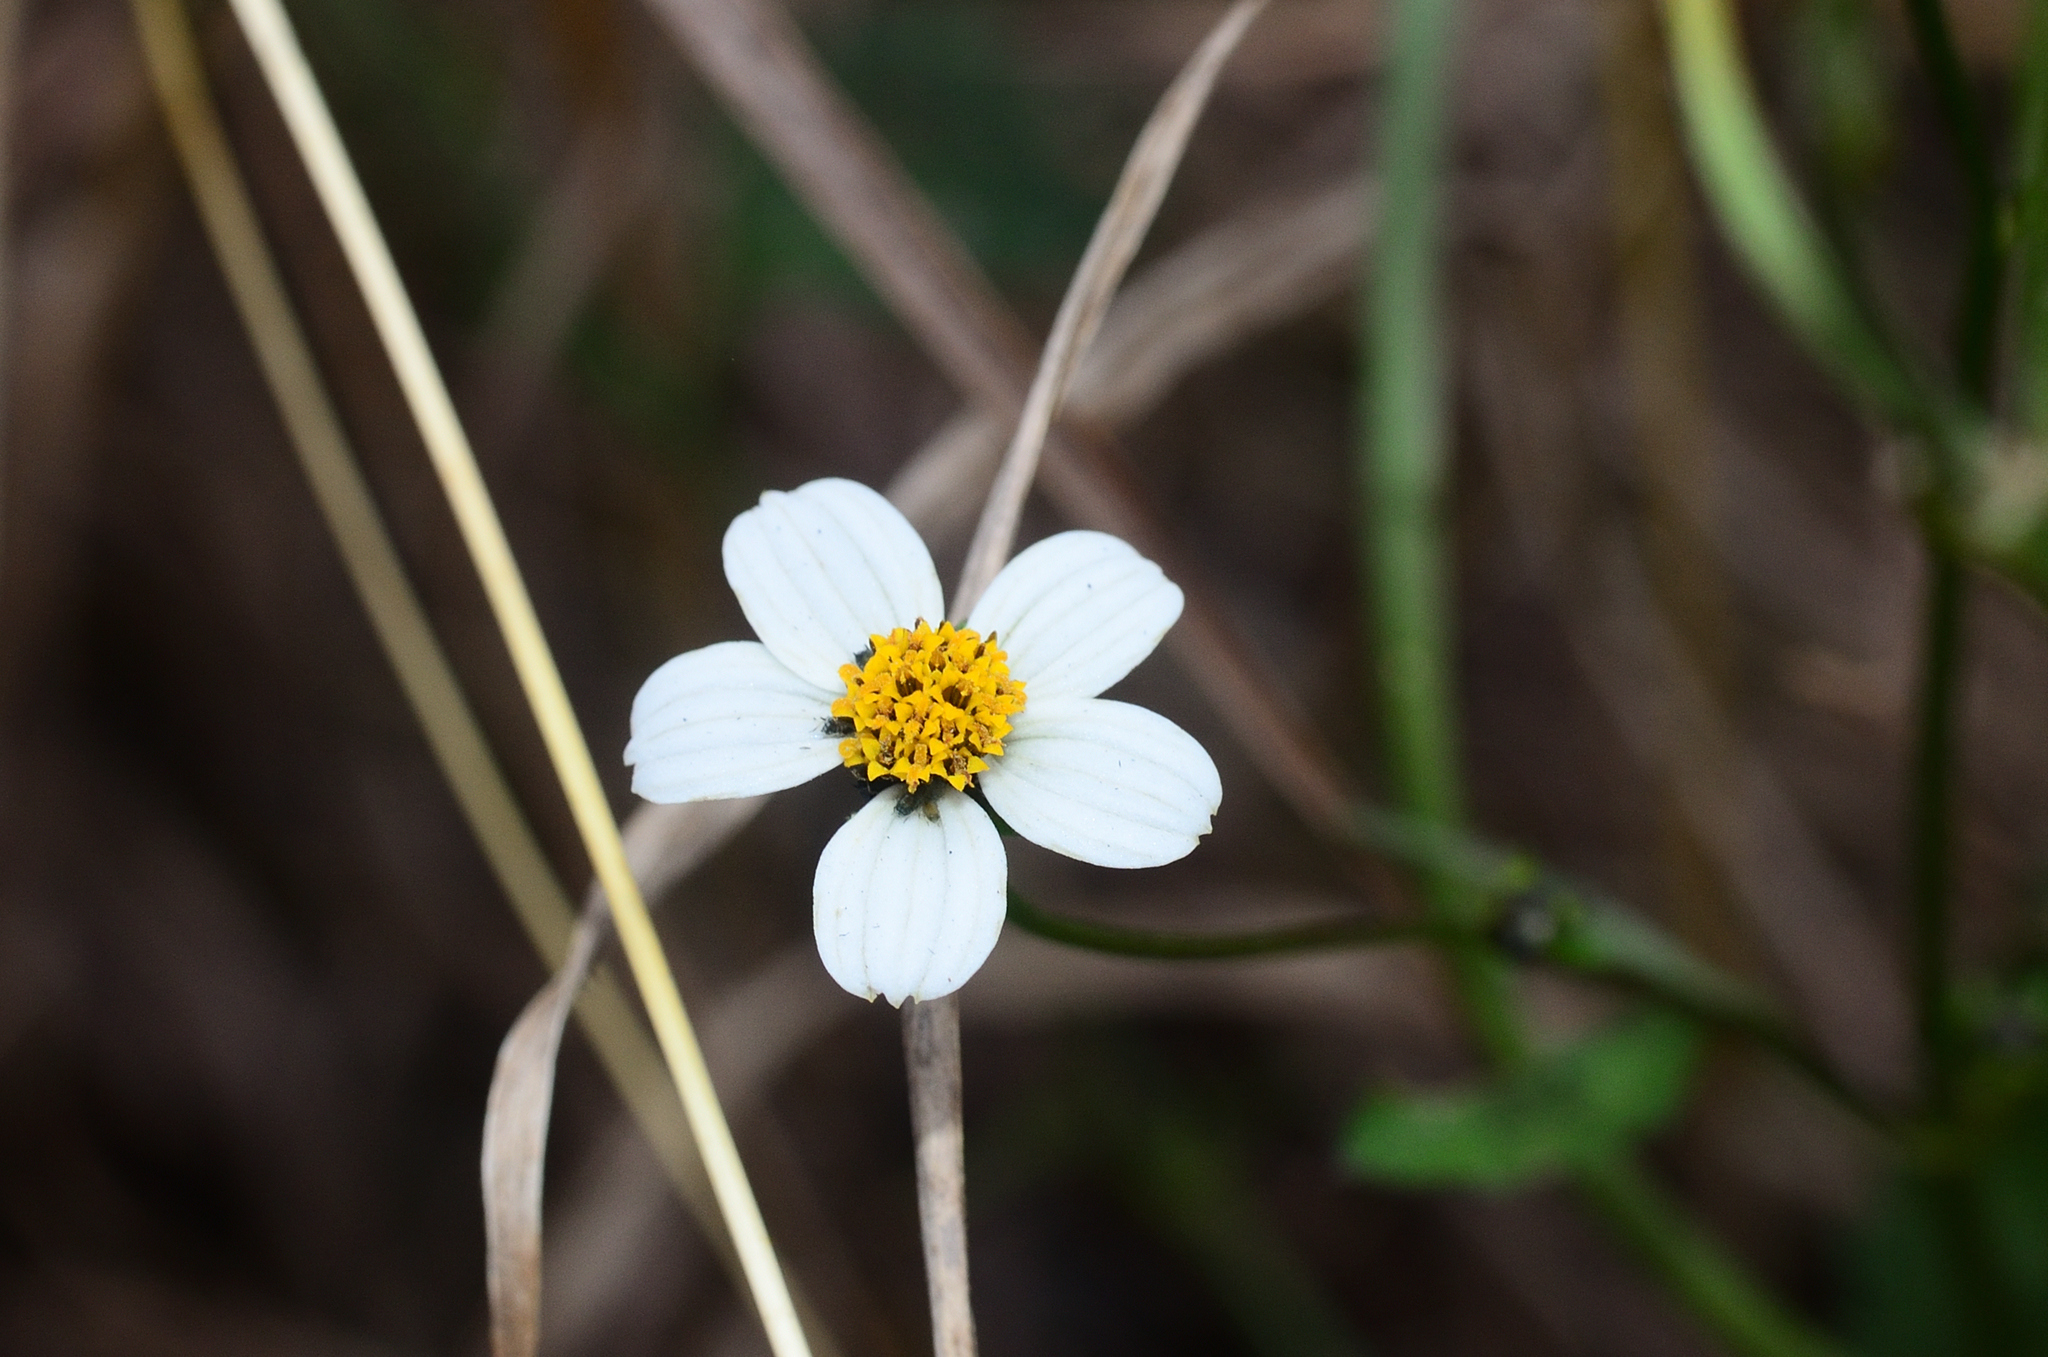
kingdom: Plantae
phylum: Tracheophyta
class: Magnoliopsida
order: Asterales
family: Asteraceae
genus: Bidens
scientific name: Bidens alba
